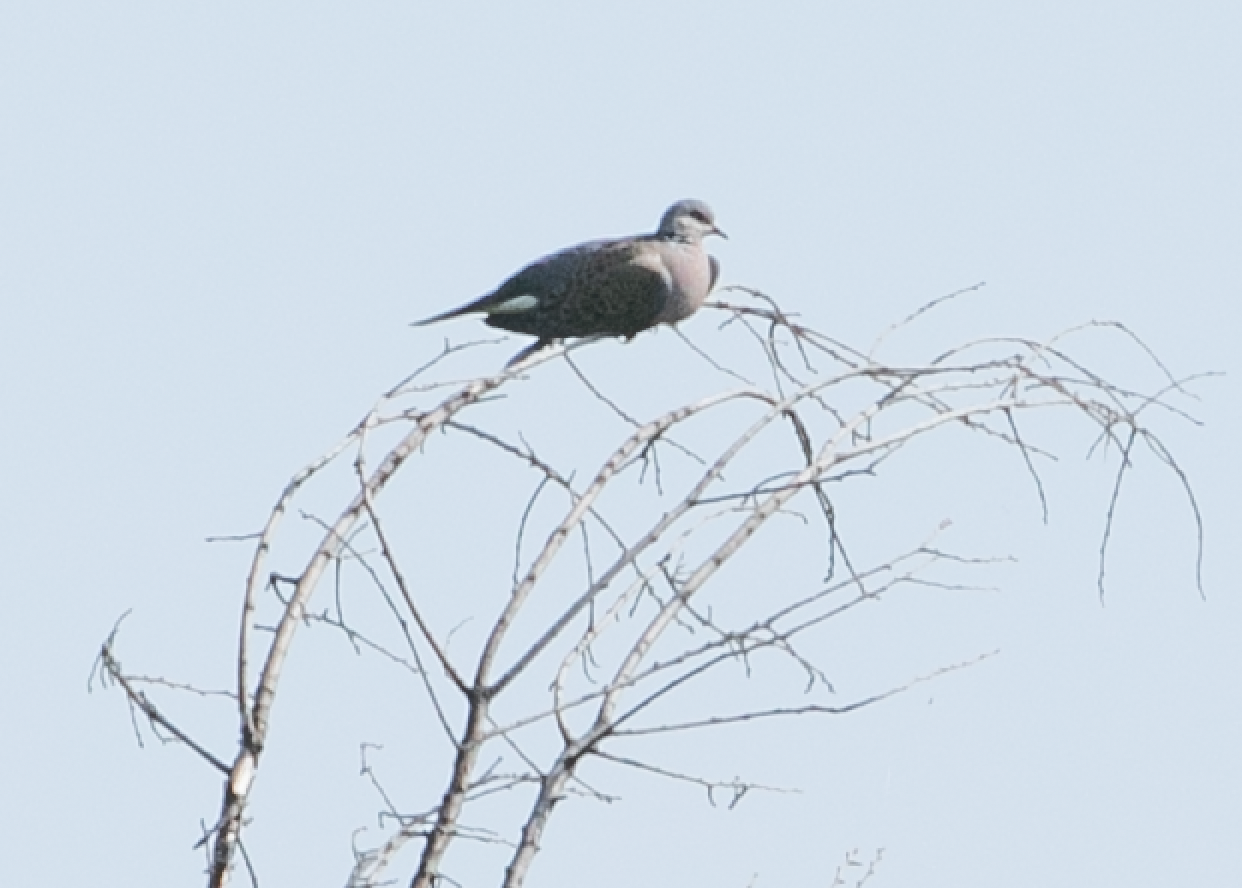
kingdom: Animalia
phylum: Chordata
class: Aves
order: Columbiformes
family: Columbidae
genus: Streptopelia
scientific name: Streptopelia turtur
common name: European turtle dove
